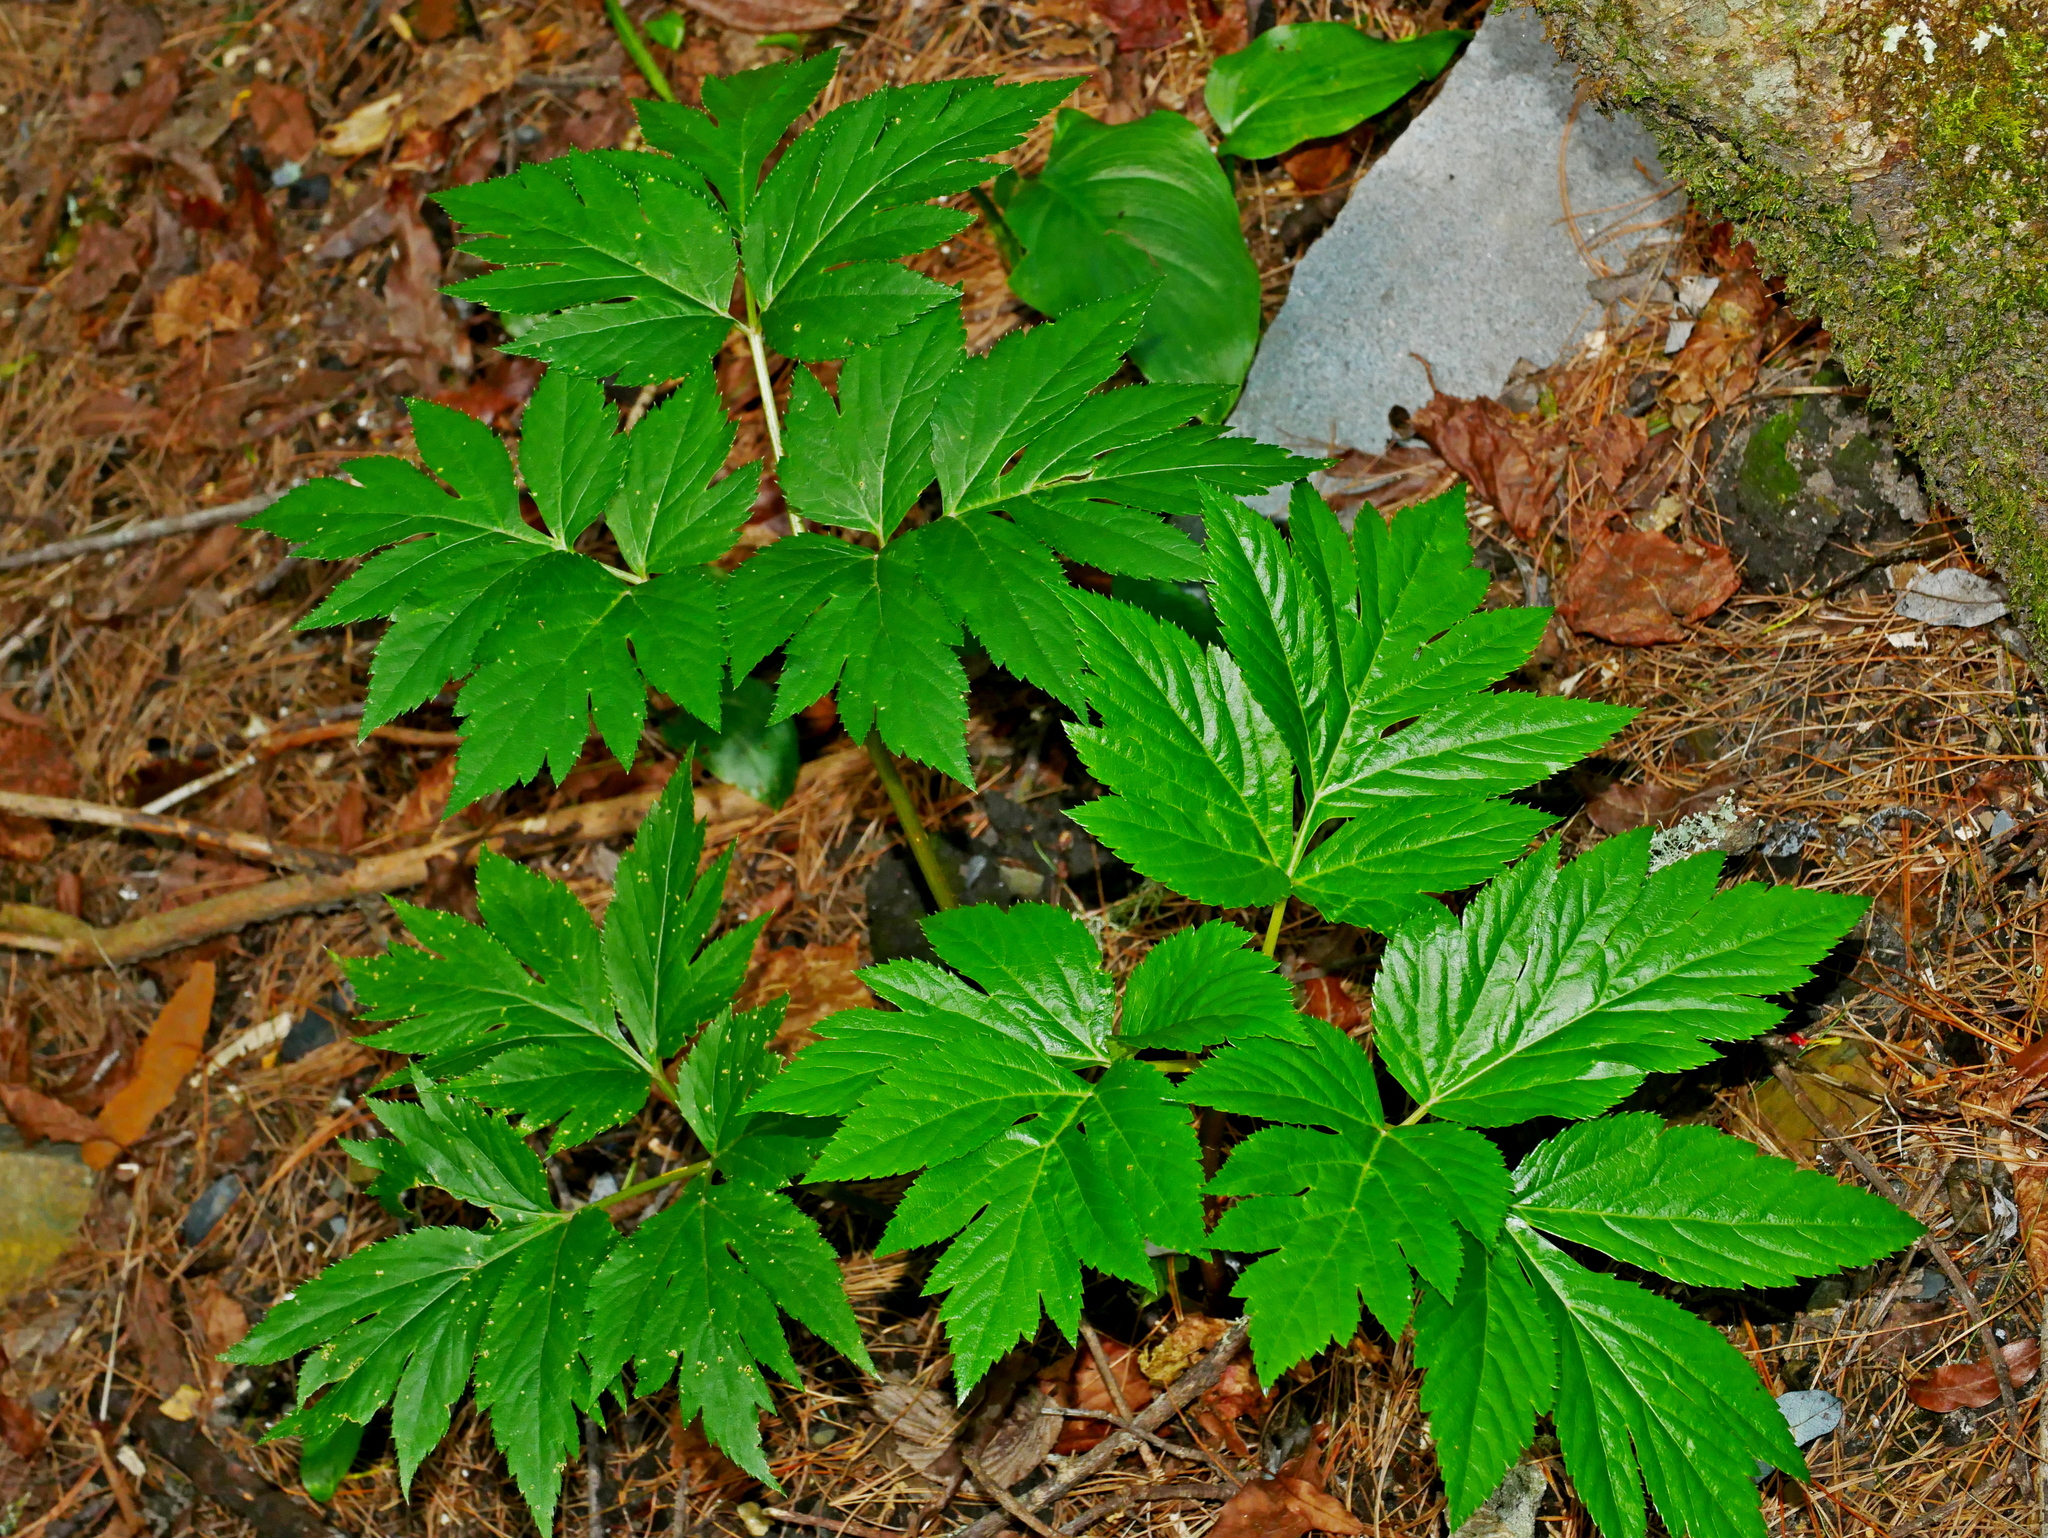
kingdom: Plantae
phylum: Tracheophyta
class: Magnoliopsida
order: Apiales
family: Apiaceae
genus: Angelica
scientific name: Angelica keiskei
